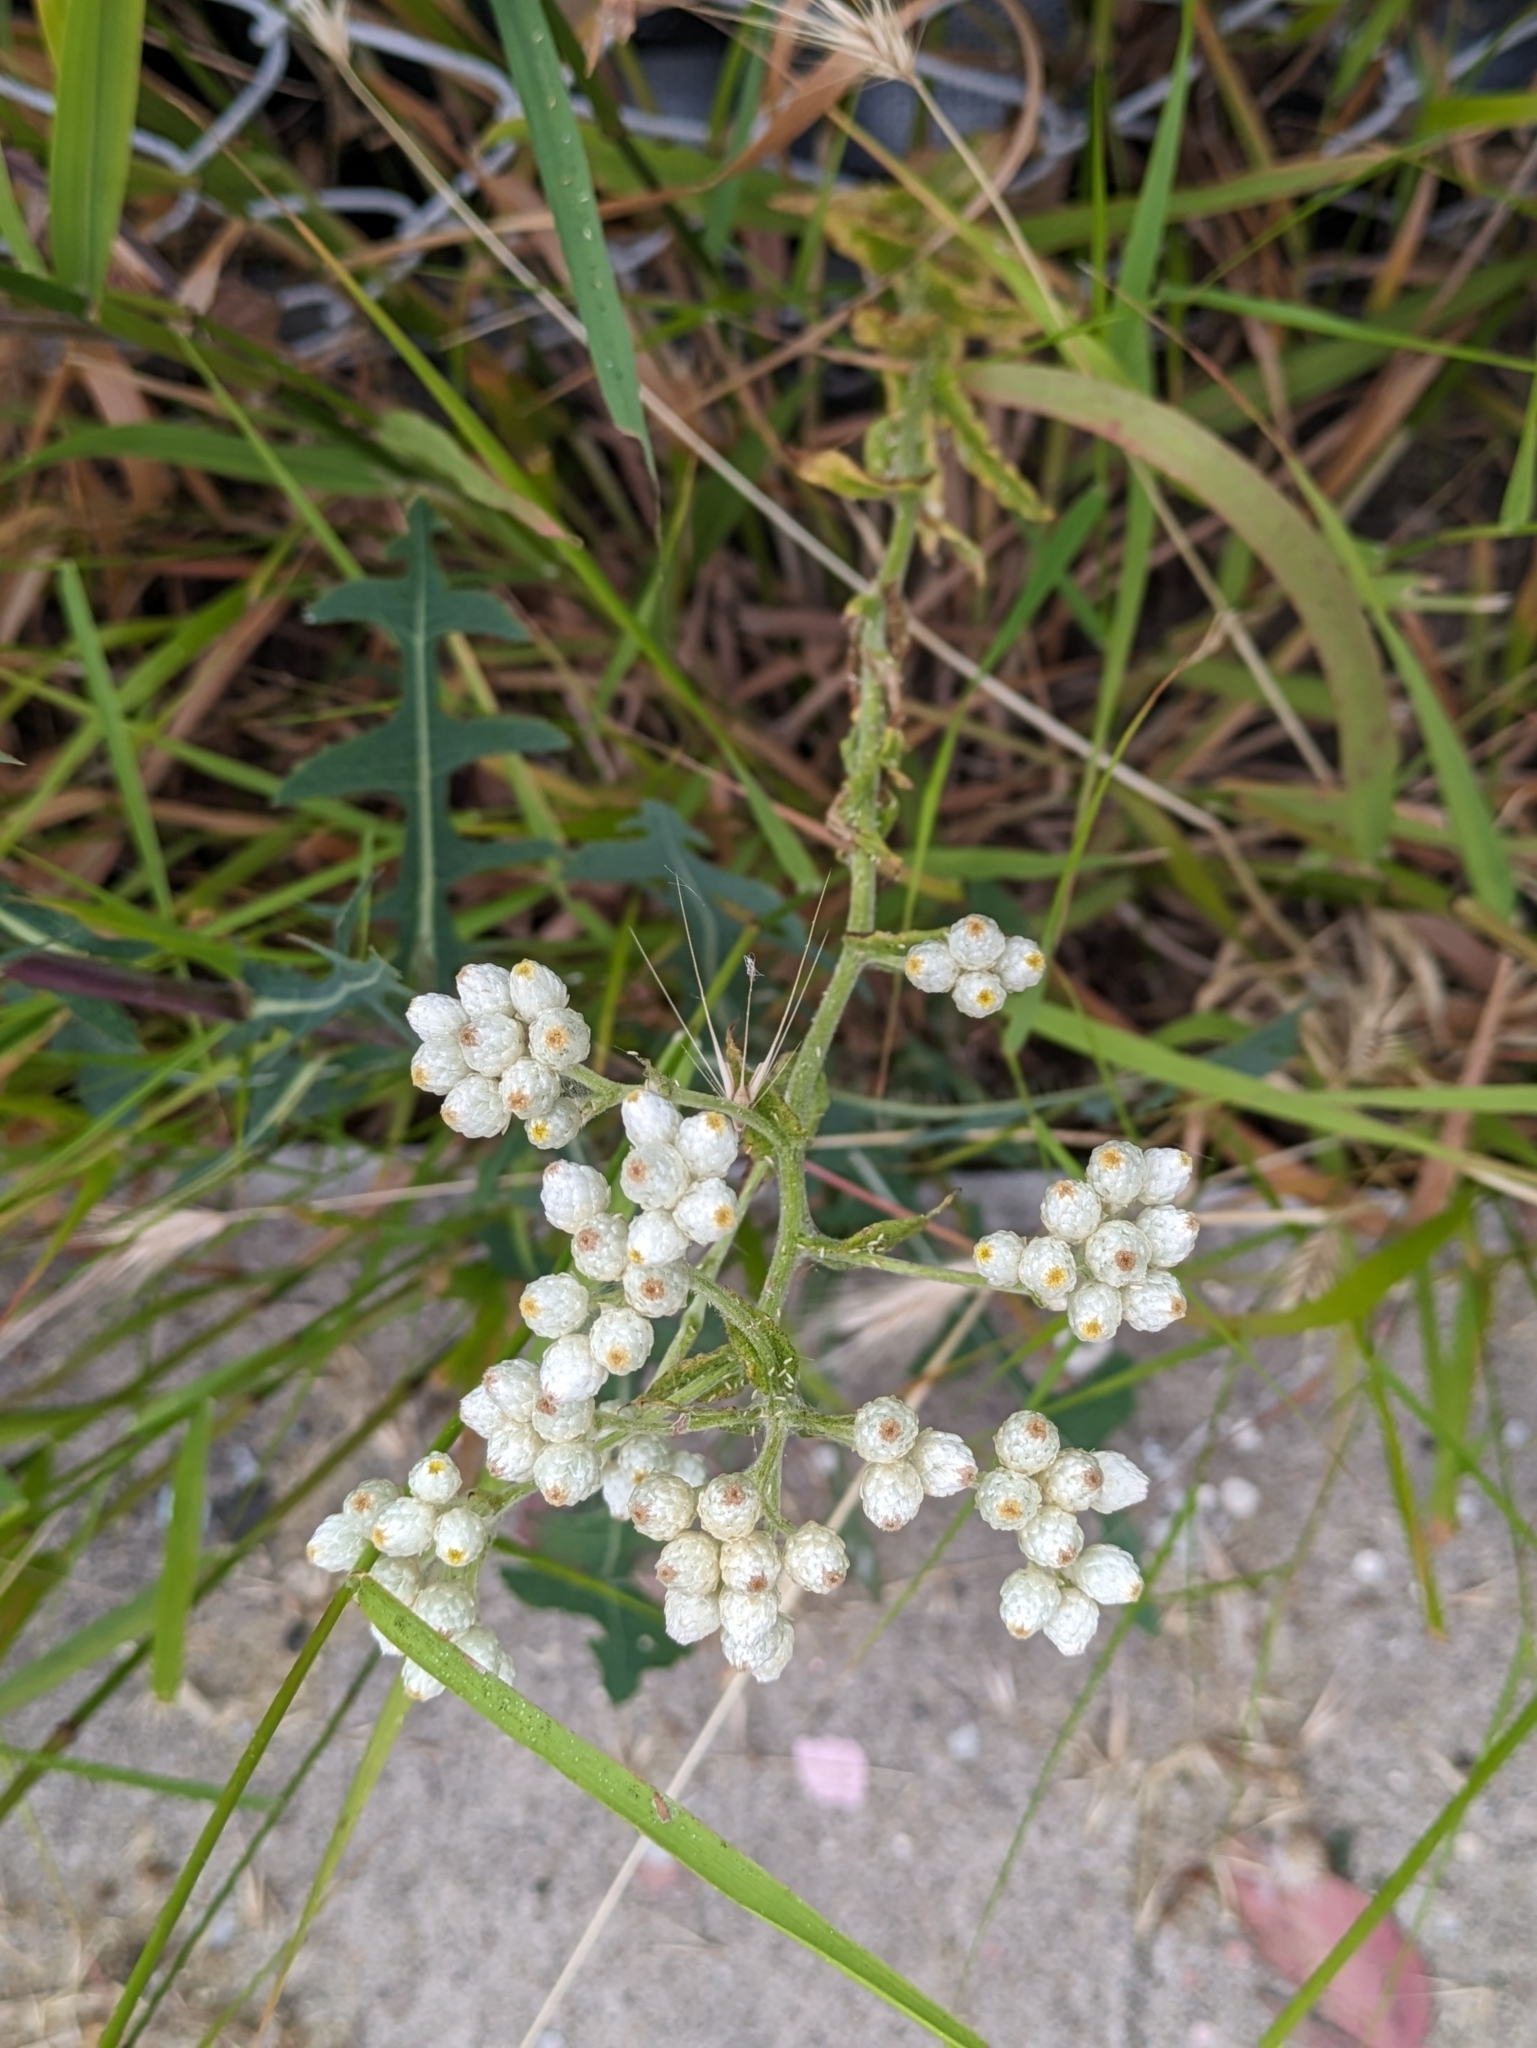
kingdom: Plantae
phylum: Tracheophyta
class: Magnoliopsida
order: Asterales
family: Asteraceae
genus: Pseudognaphalium
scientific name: Pseudognaphalium californicum
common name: California rabbit-tobacco
